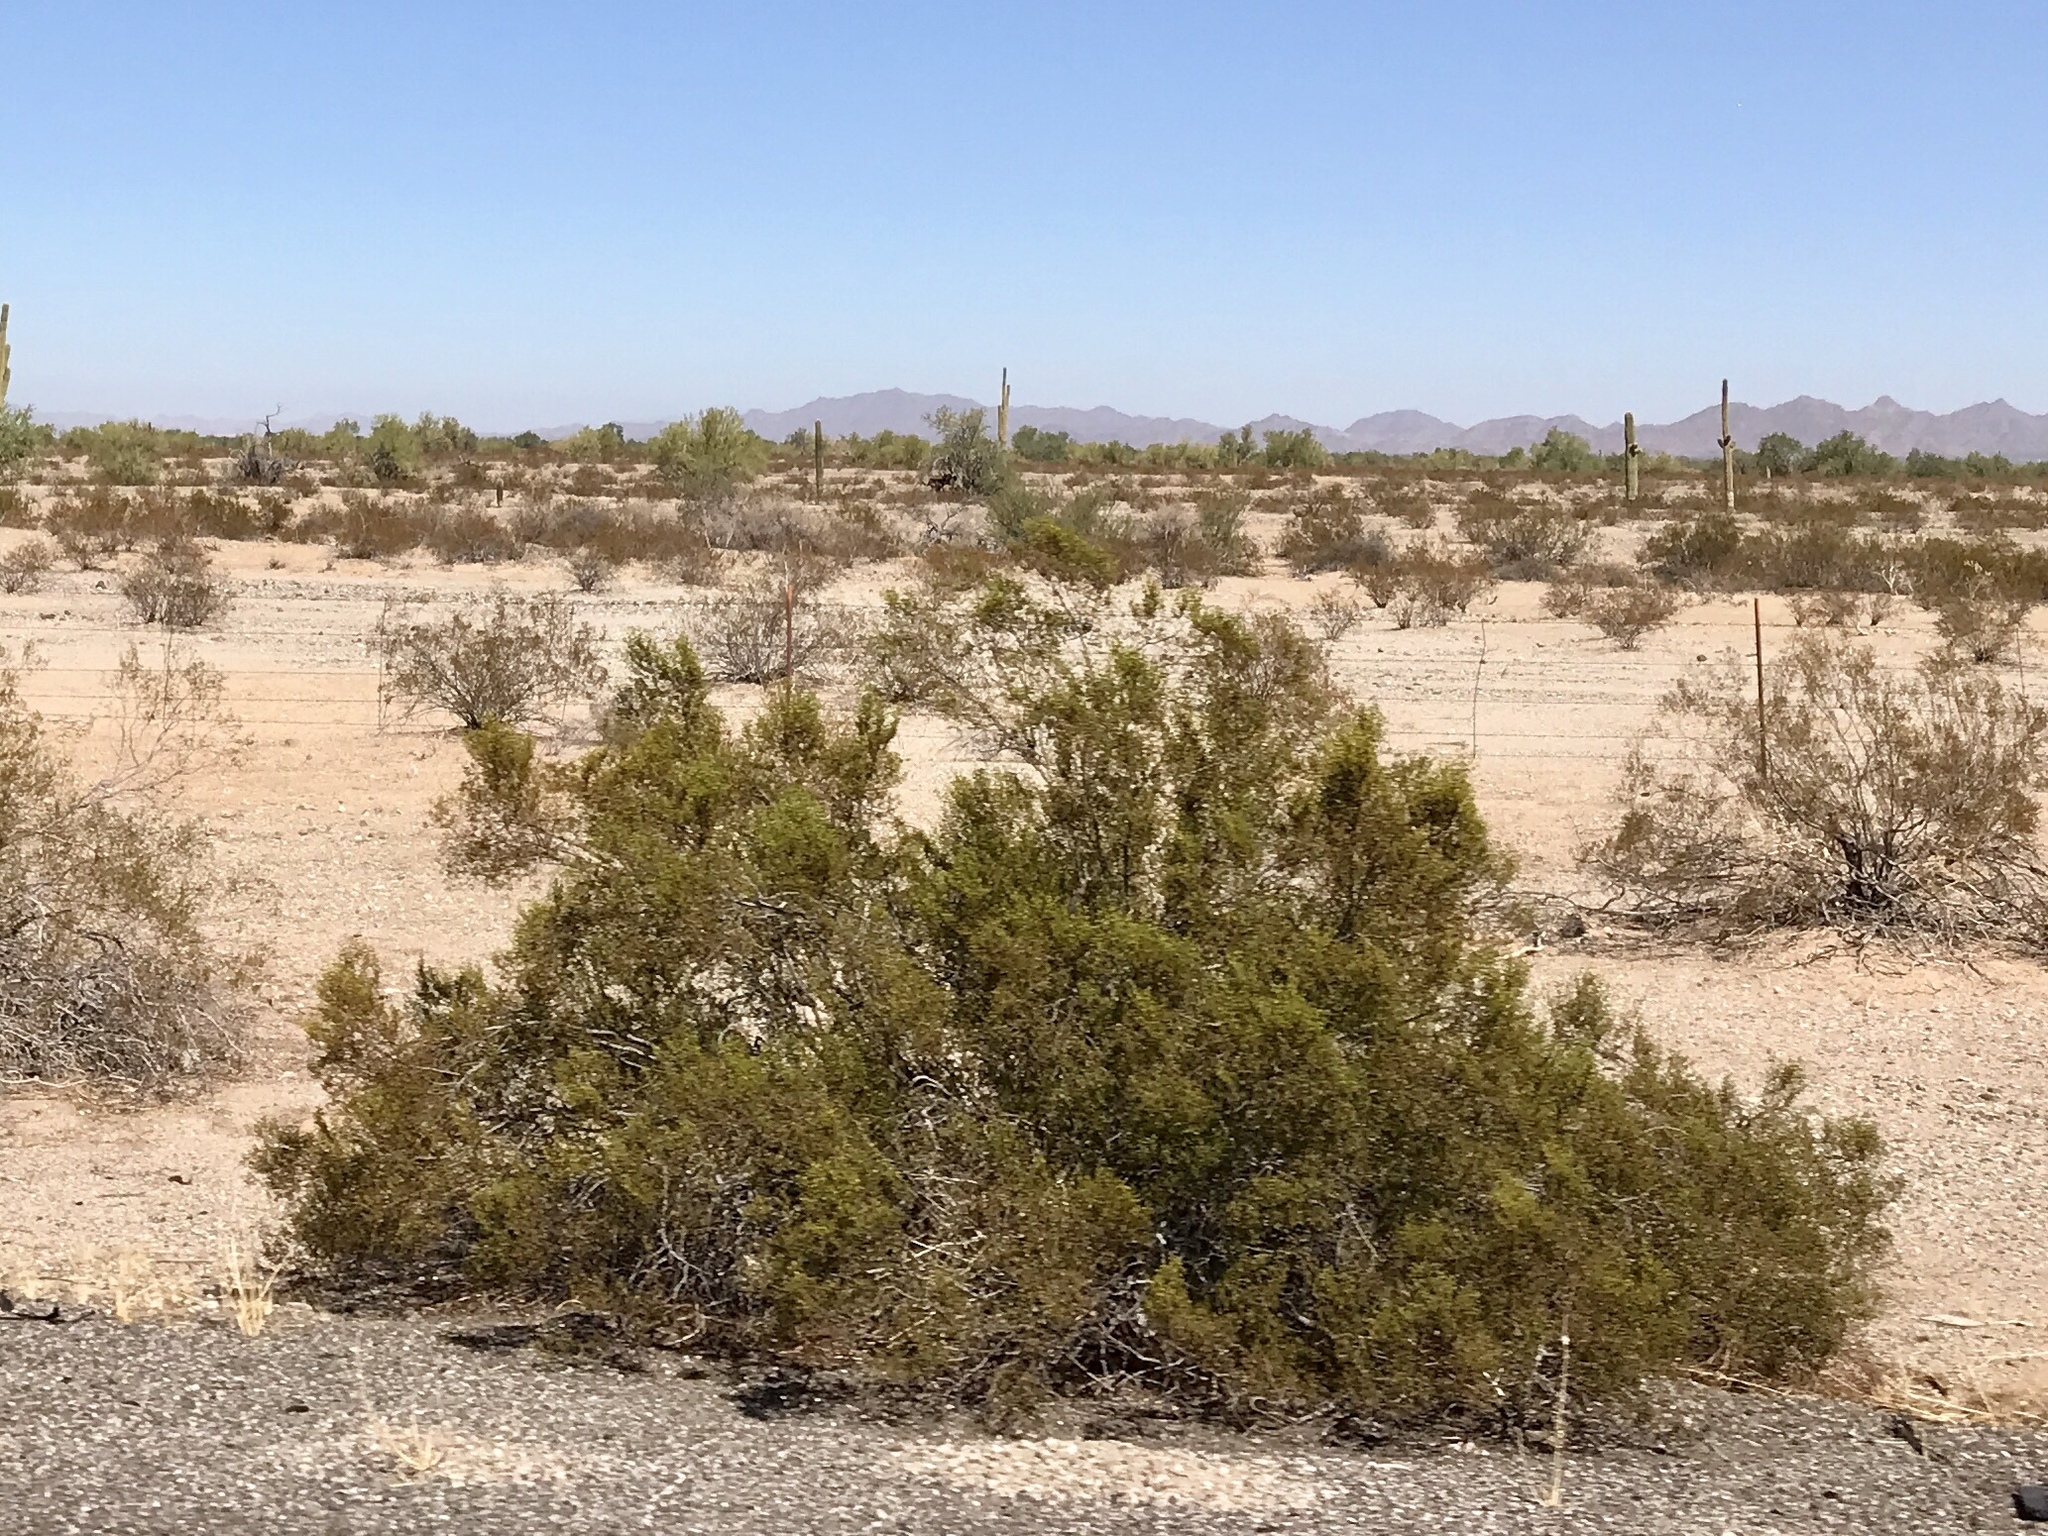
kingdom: Plantae
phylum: Tracheophyta
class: Magnoliopsida
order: Zygophyllales
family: Zygophyllaceae
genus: Larrea
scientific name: Larrea tridentata
